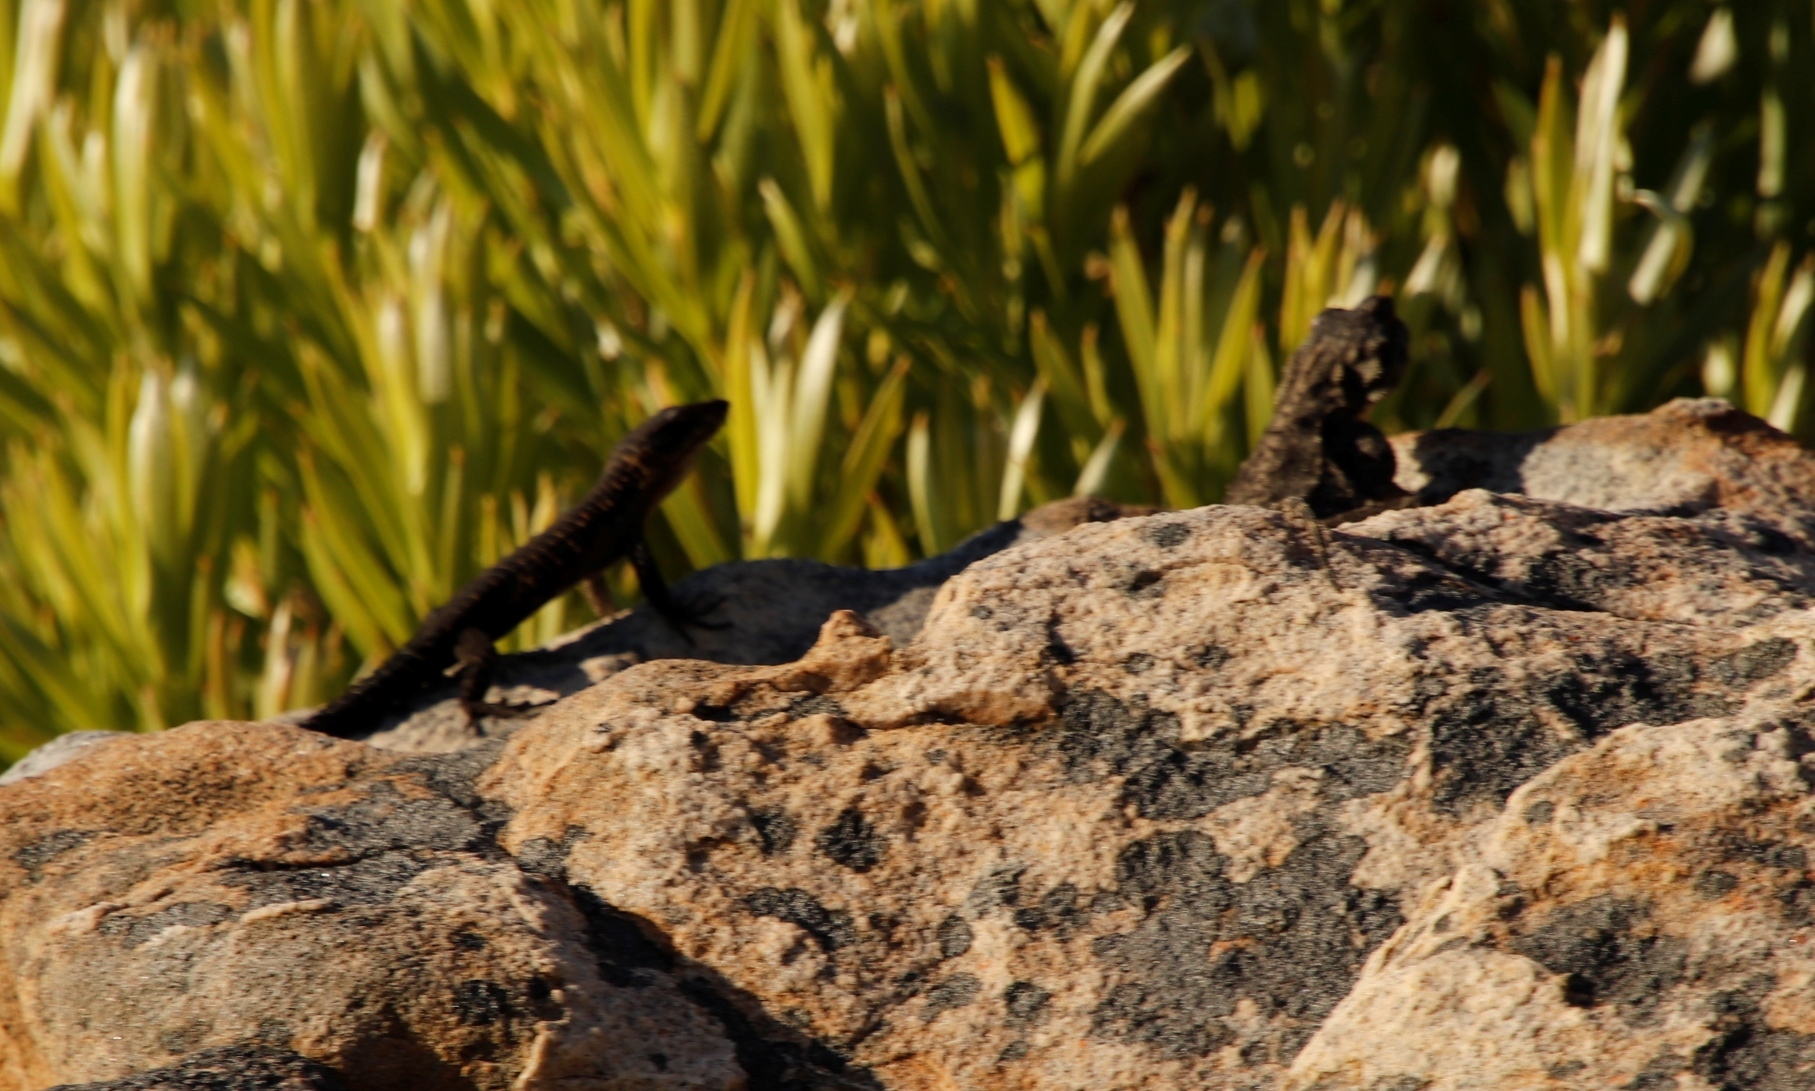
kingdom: Animalia
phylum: Chordata
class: Squamata
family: Cordylidae
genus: Cordylus
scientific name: Cordylus niger
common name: Black girdled lizard
